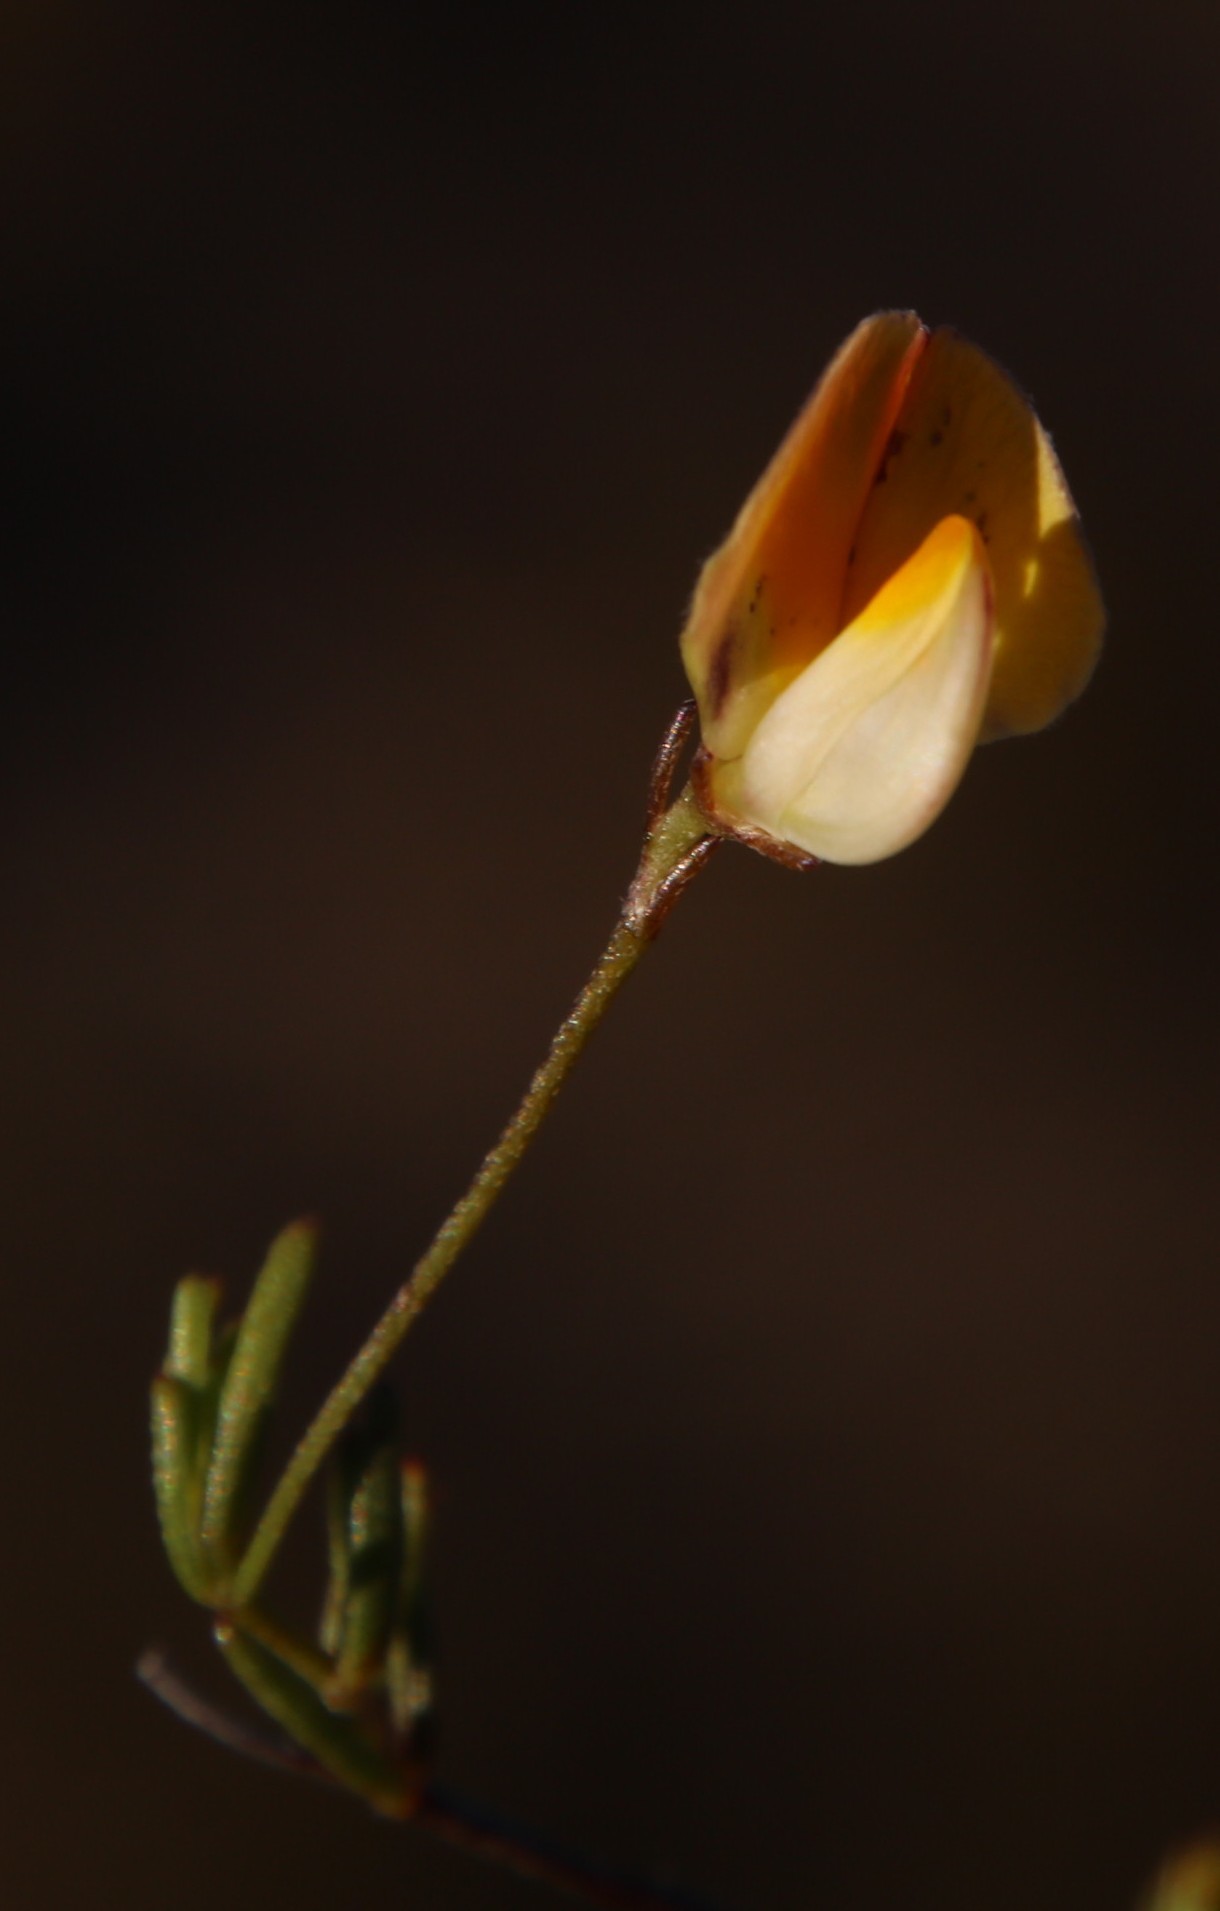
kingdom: Plantae
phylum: Tracheophyta
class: Magnoliopsida
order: Fabales
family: Fabaceae
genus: Aspalathus
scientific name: Aspalathus bracteata
